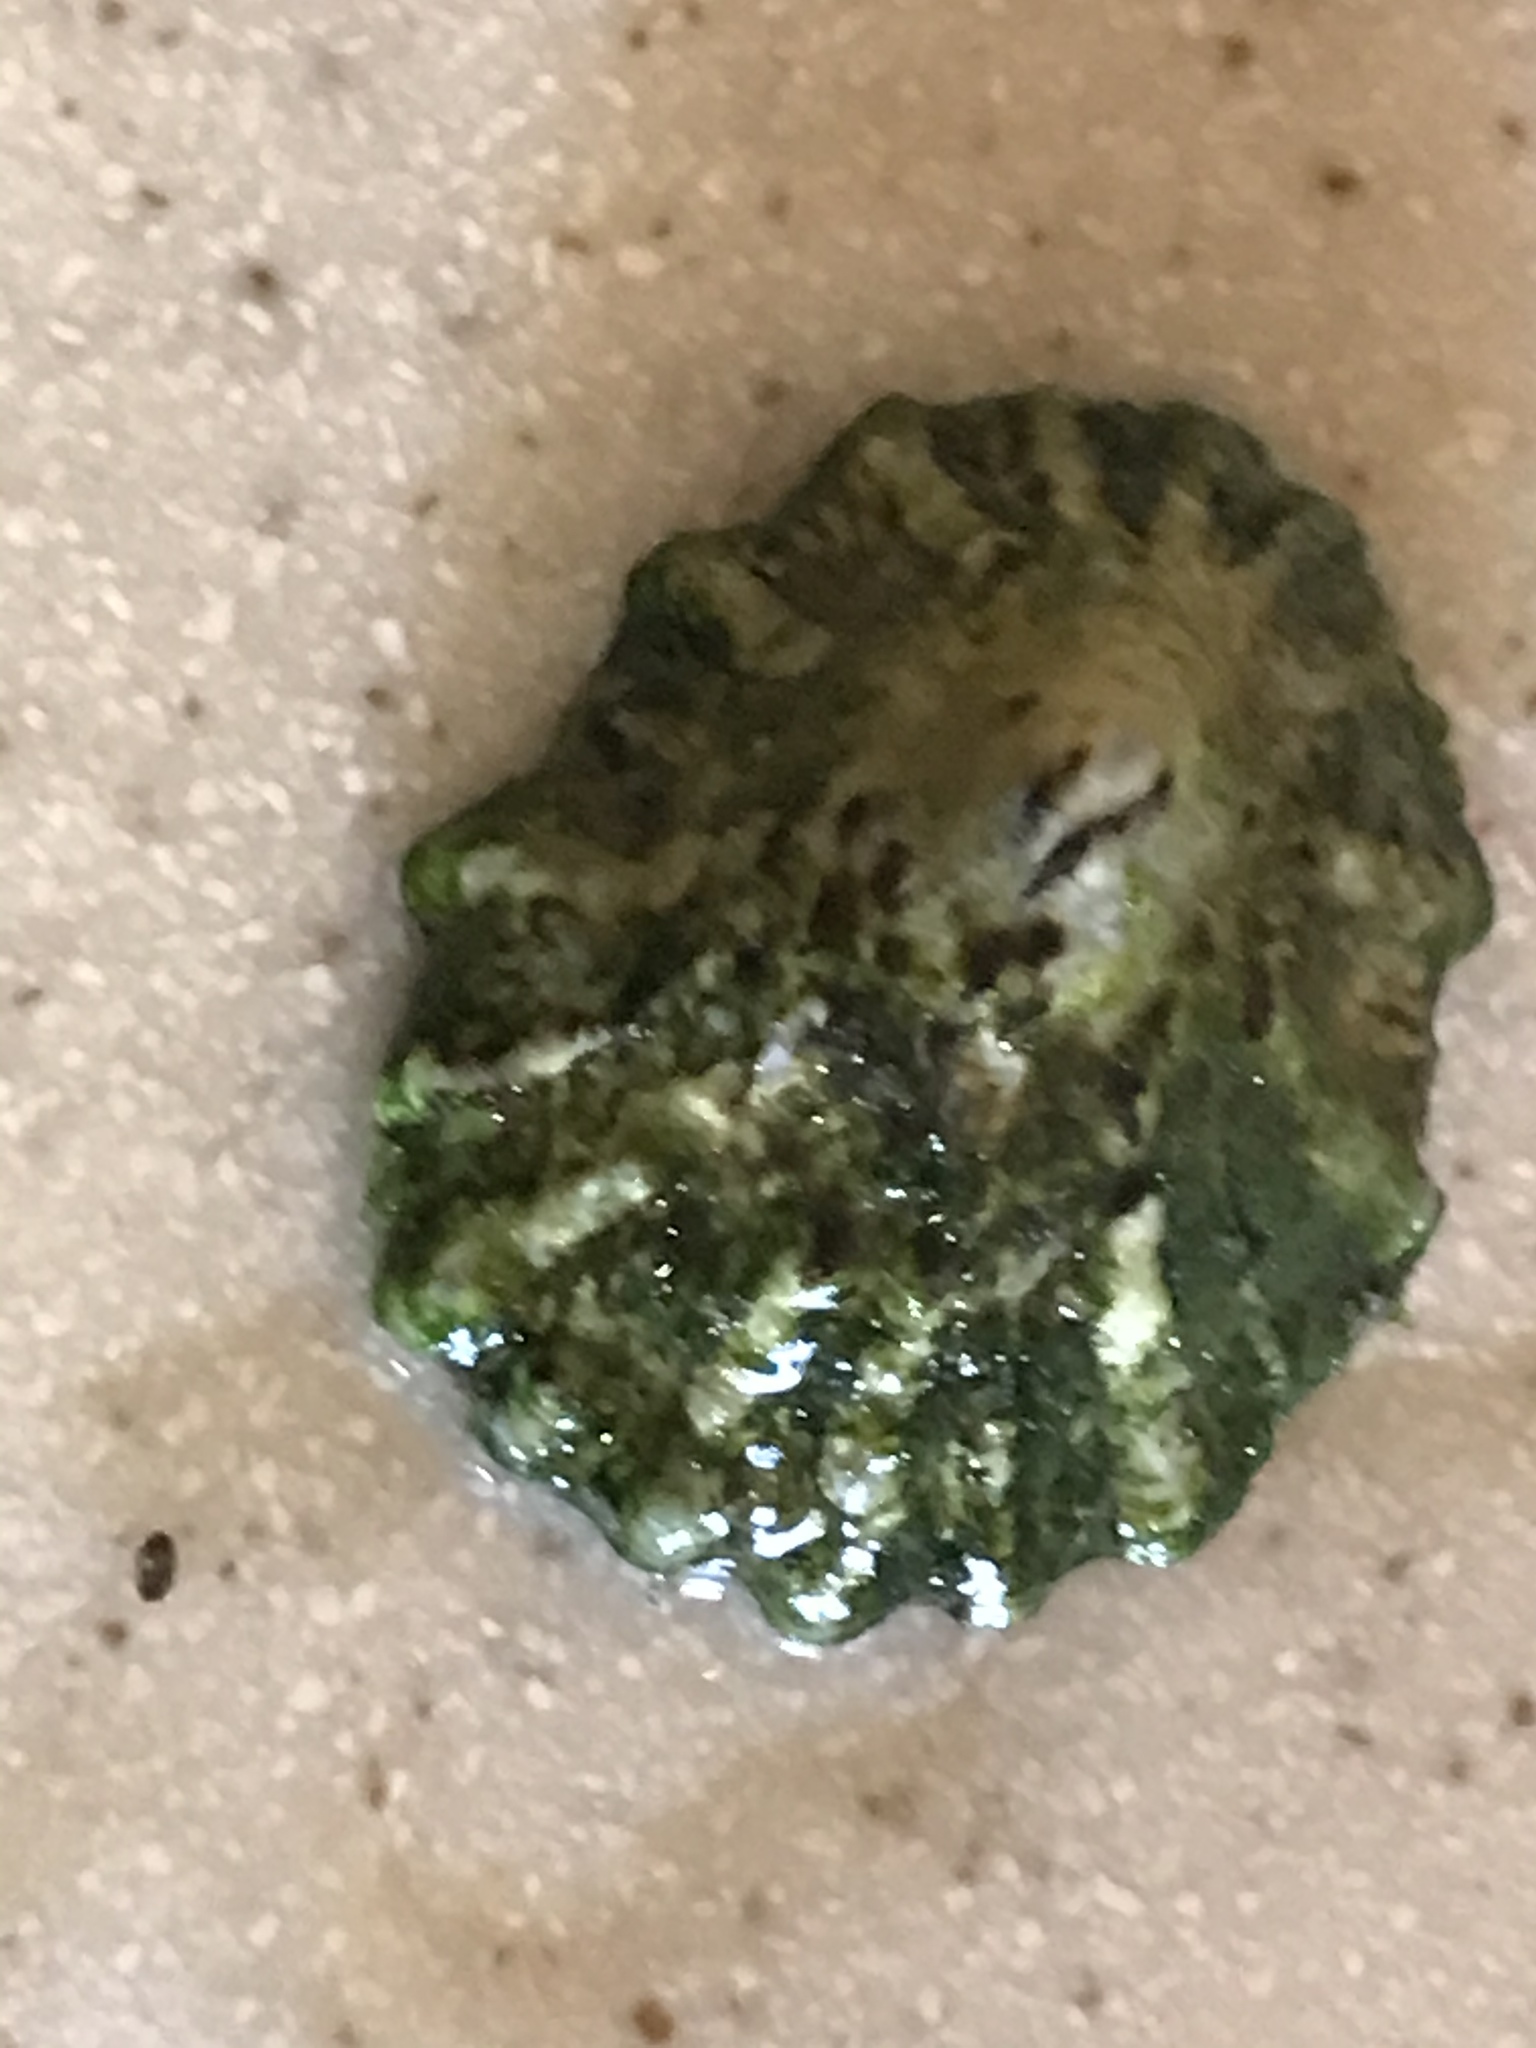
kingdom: Animalia
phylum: Mollusca
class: Gastropoda
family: Lottiidae
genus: Lottia
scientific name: Lottia scabra
